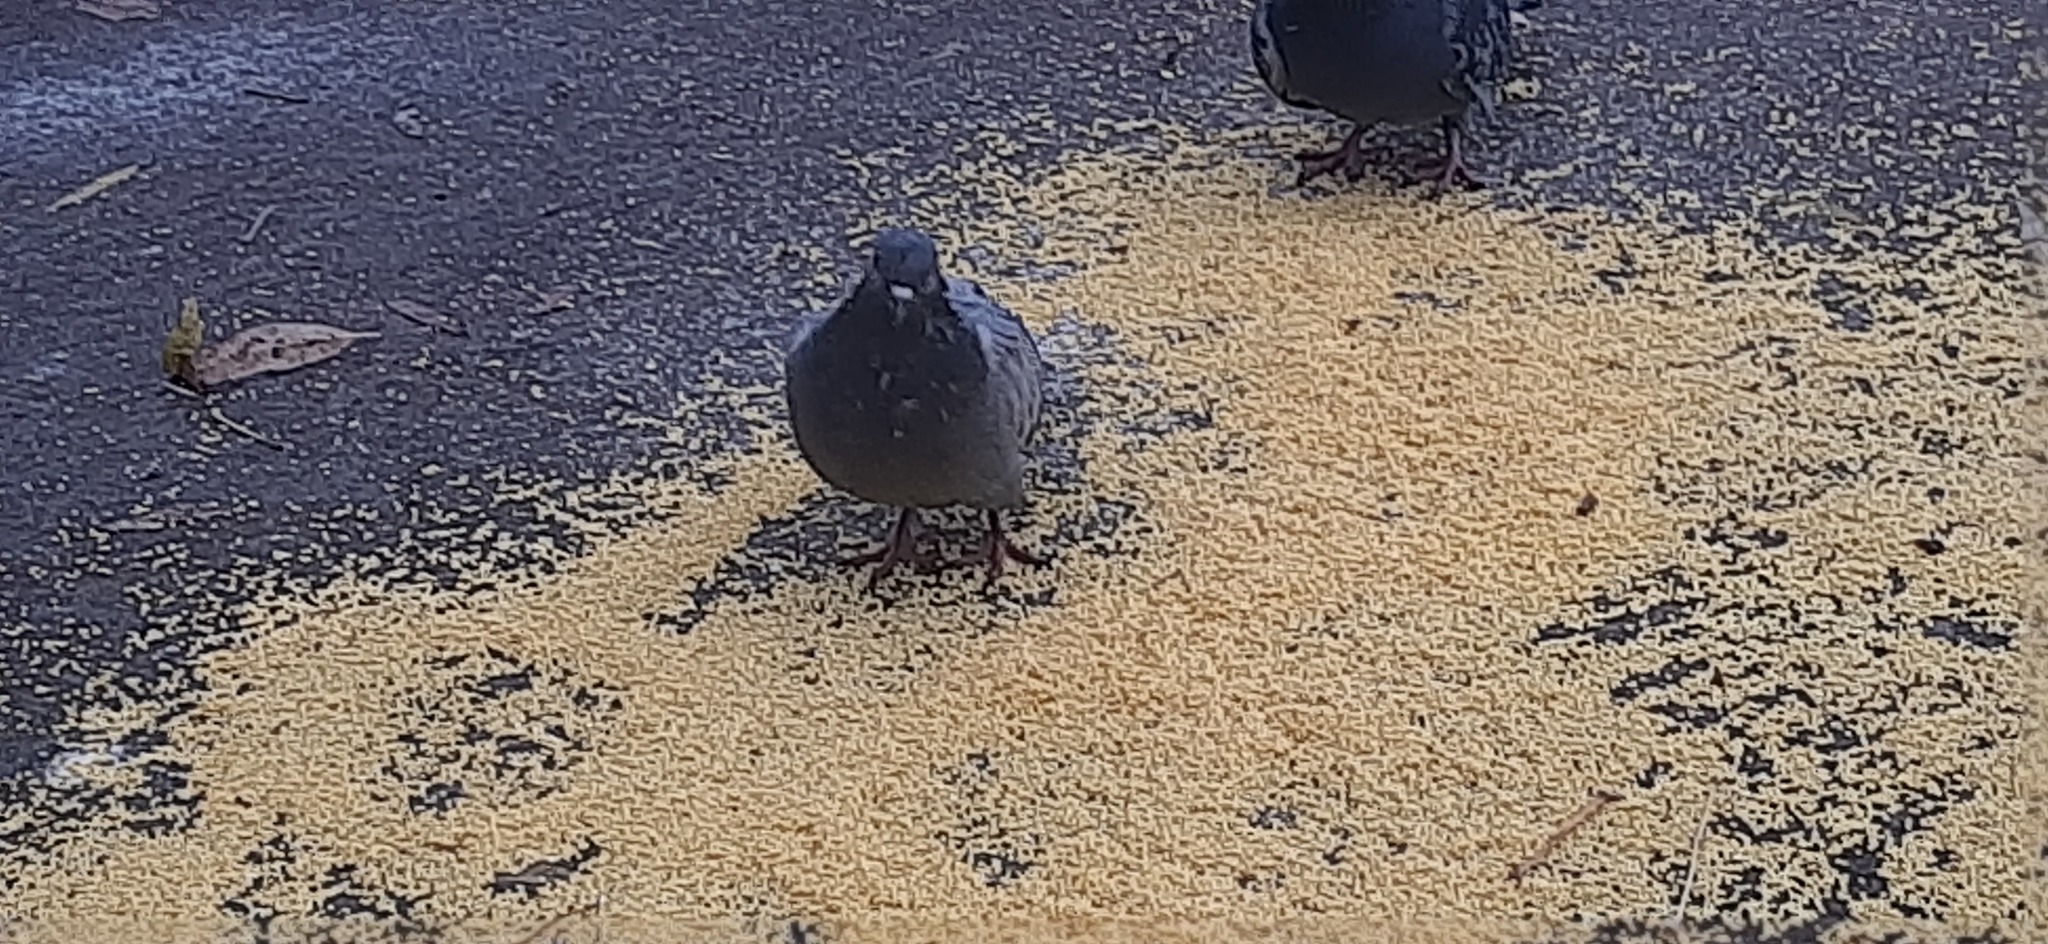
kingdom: Animalia
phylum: Chordata
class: Aves
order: Columbiformes
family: Columbidae
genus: Columba
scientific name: Columba livia
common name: Rock pigeon
